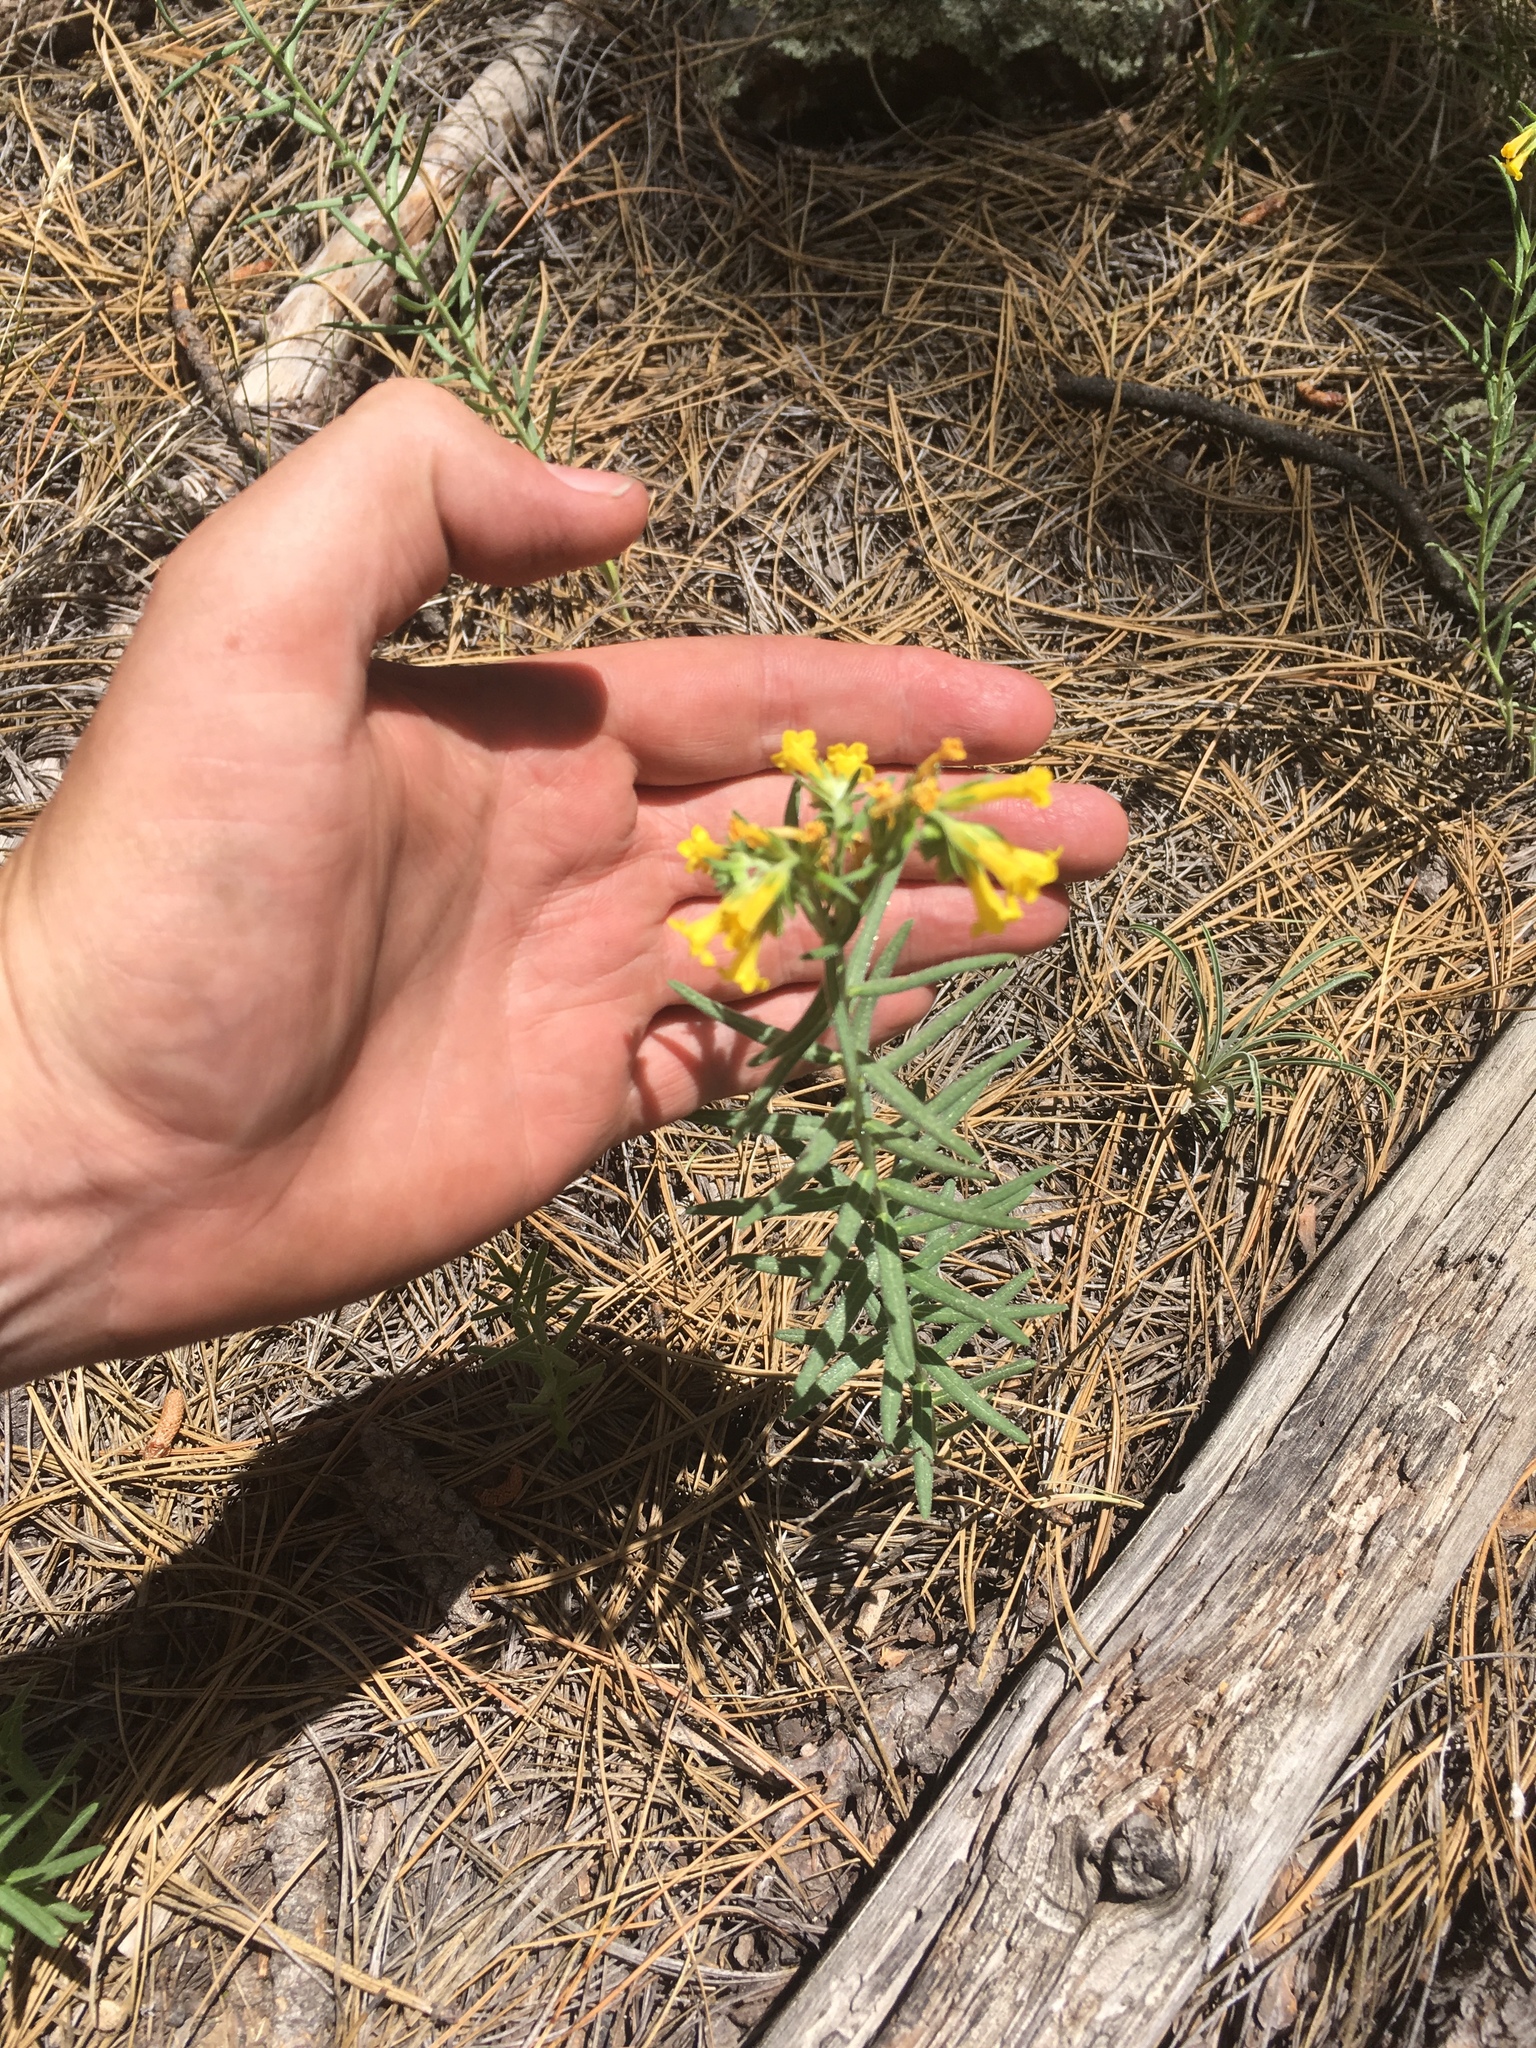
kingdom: Plantae
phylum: Tracheophyta
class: Magnoliopsida
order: Boraginales
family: Boraginaceae
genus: Lithospermum
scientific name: Lithospermum multiflorum
